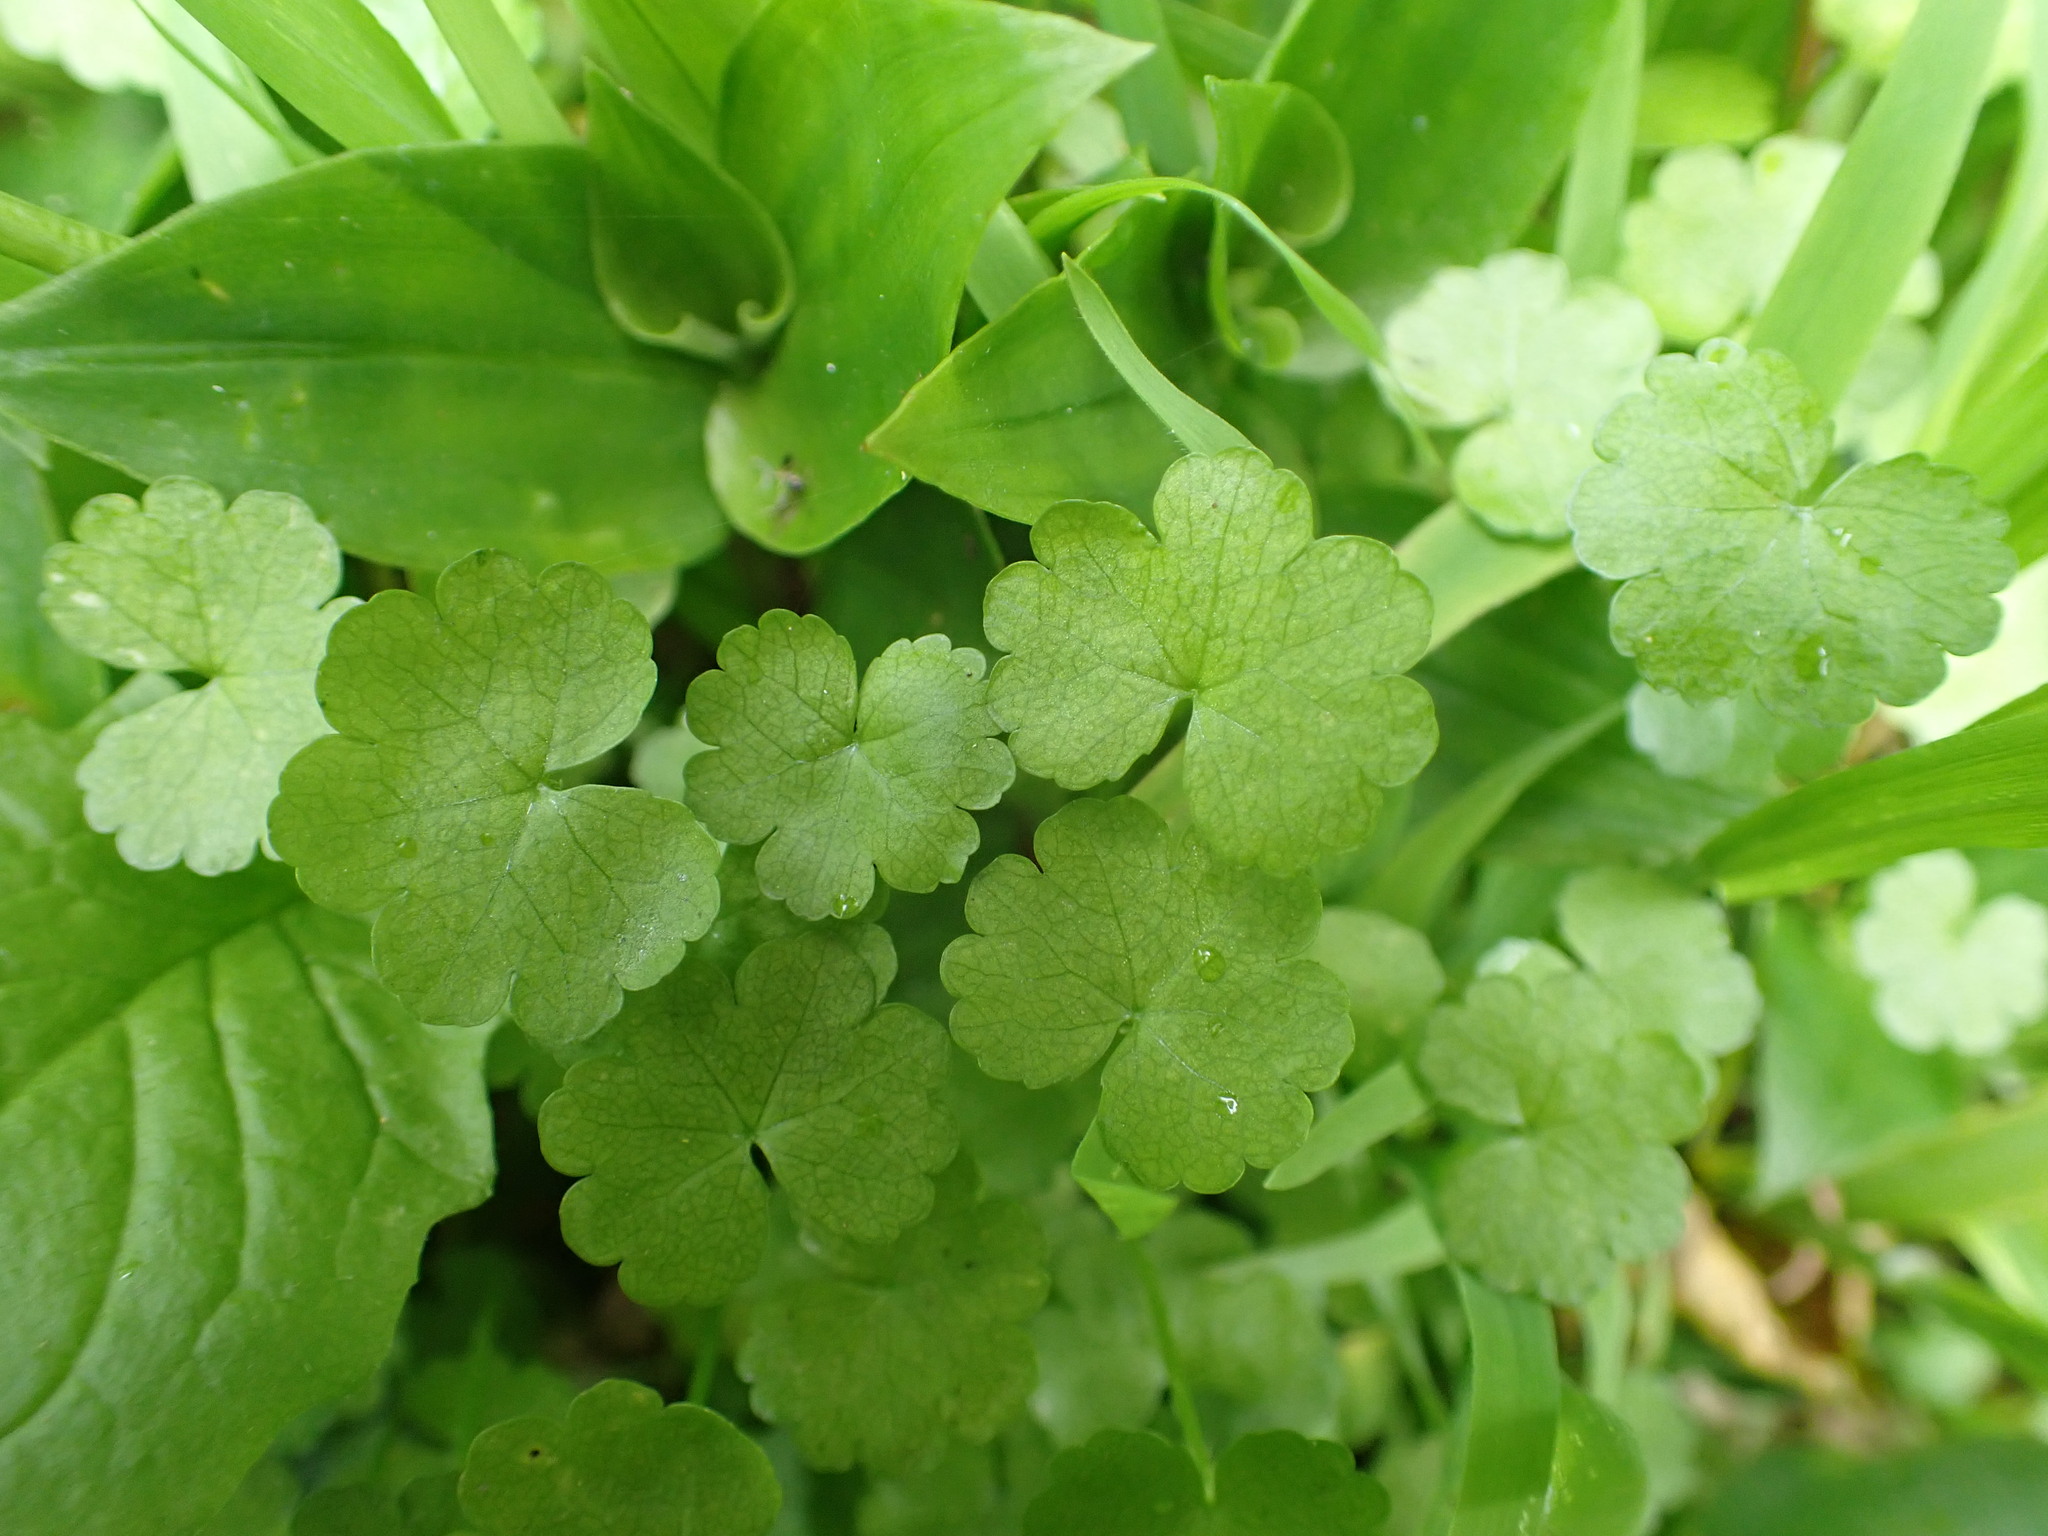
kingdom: Plantae
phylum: Tracheophyta
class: Magnoliopsida
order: Apiales
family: Araliaceae
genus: Hydrocotyle
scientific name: Hydrocotyle heteromeria
